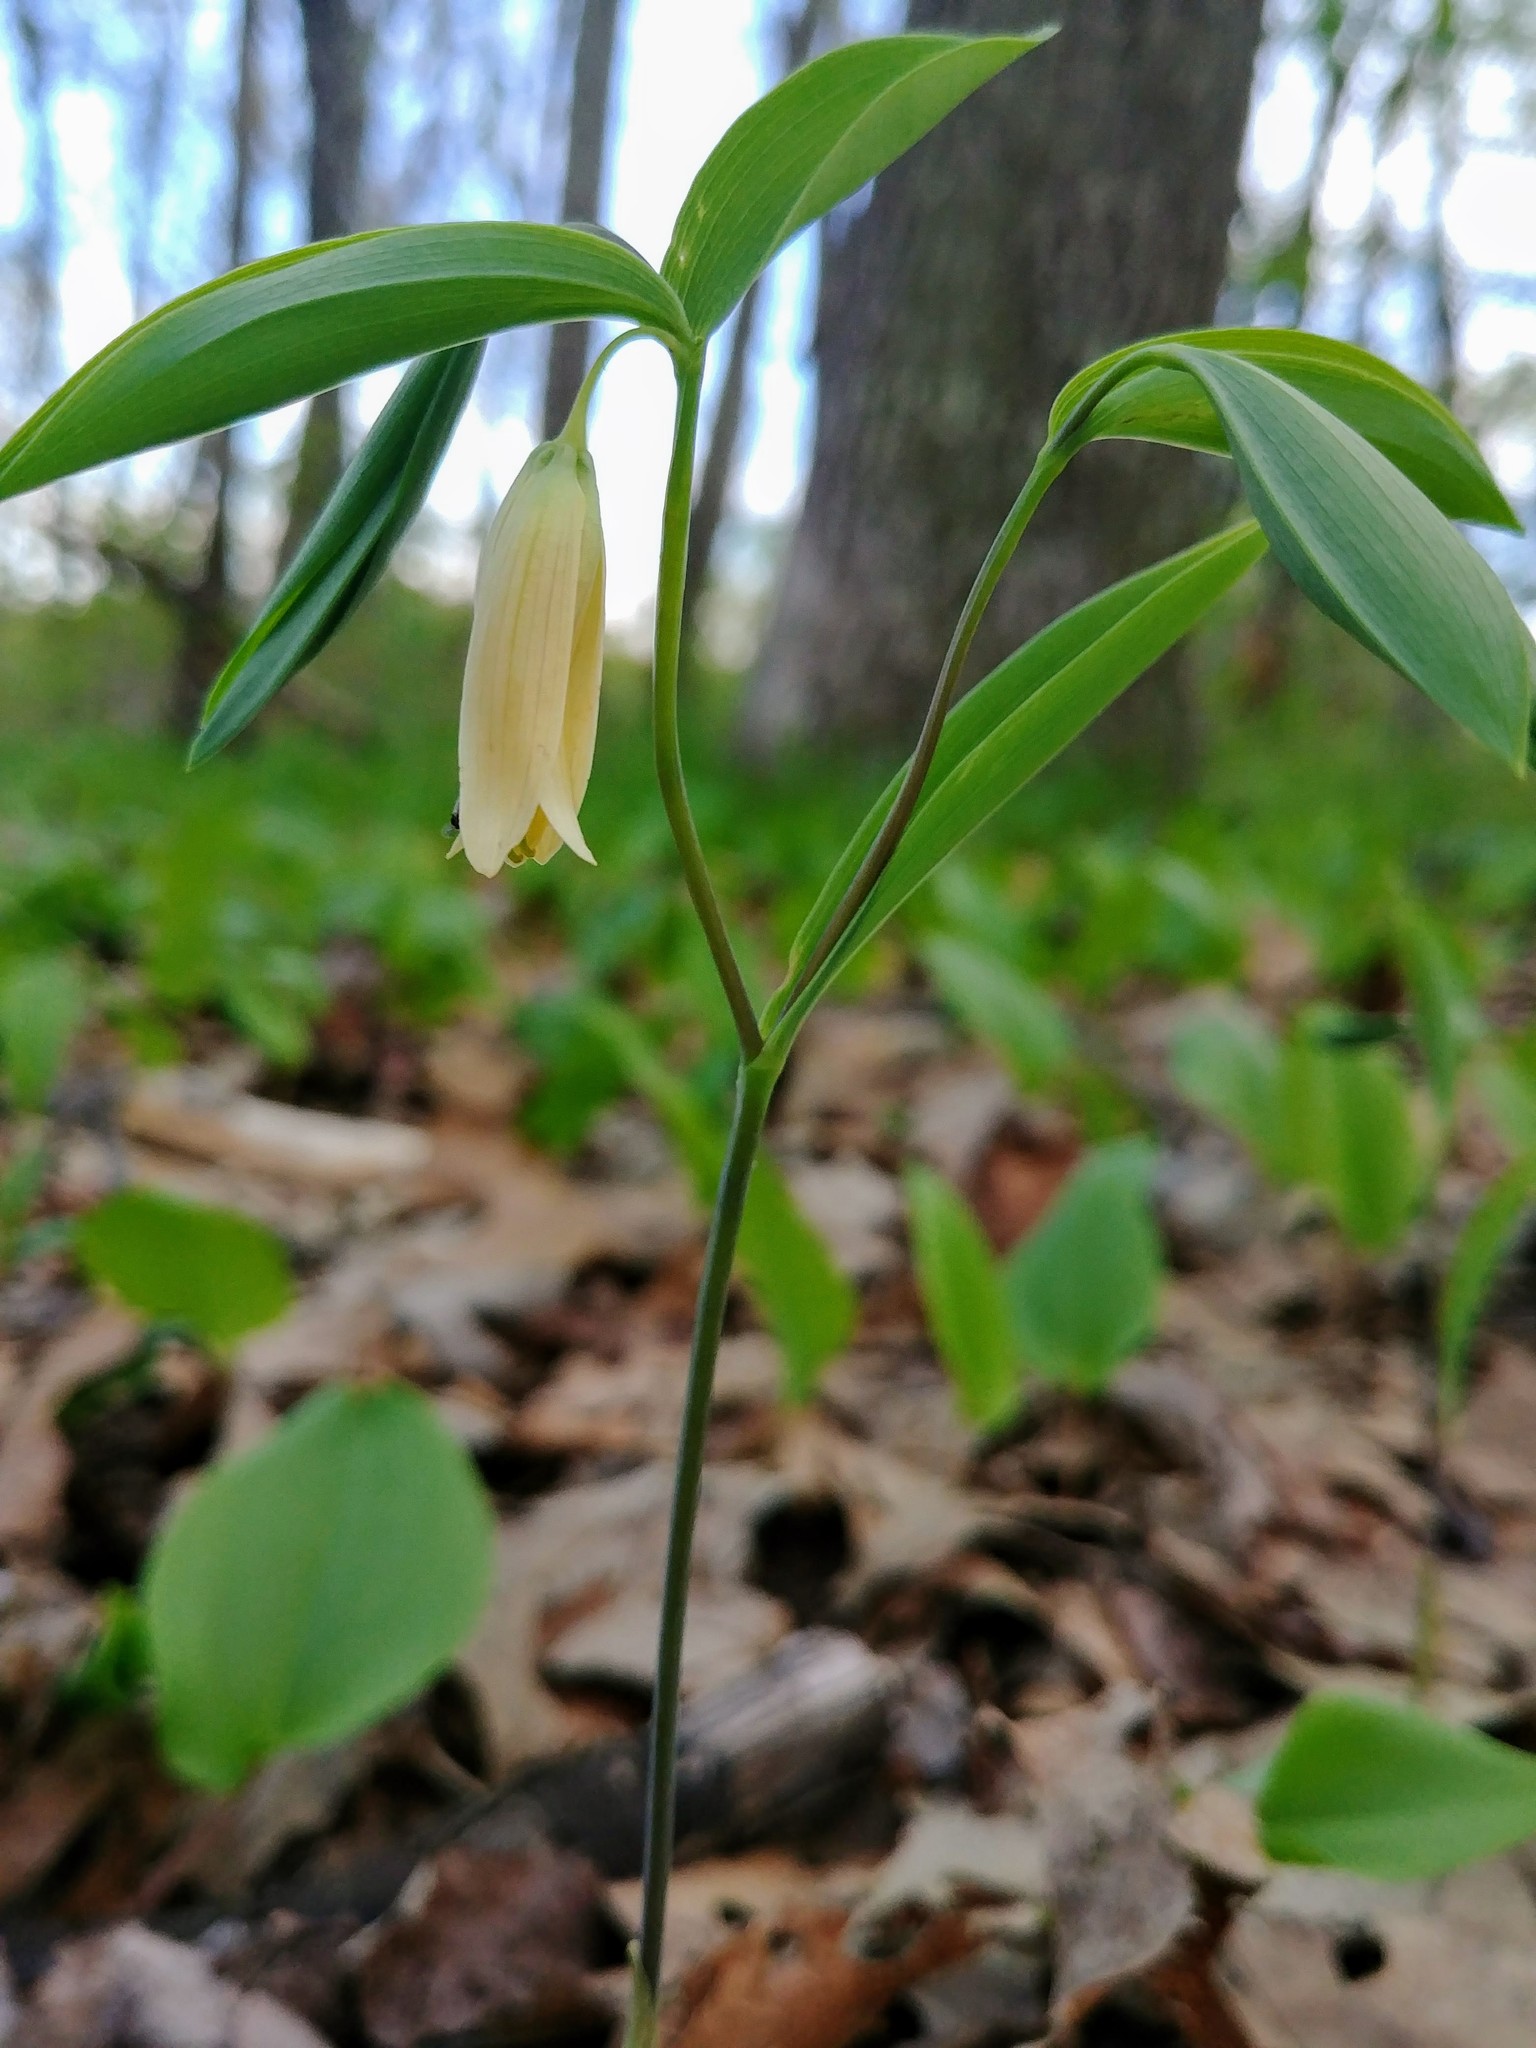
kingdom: Plantae
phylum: Tracheophyta
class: Liliopsida
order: Liliales
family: Colchicaceae
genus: Uvularia
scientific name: Uvularia sessilifolia
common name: Straw-lily
